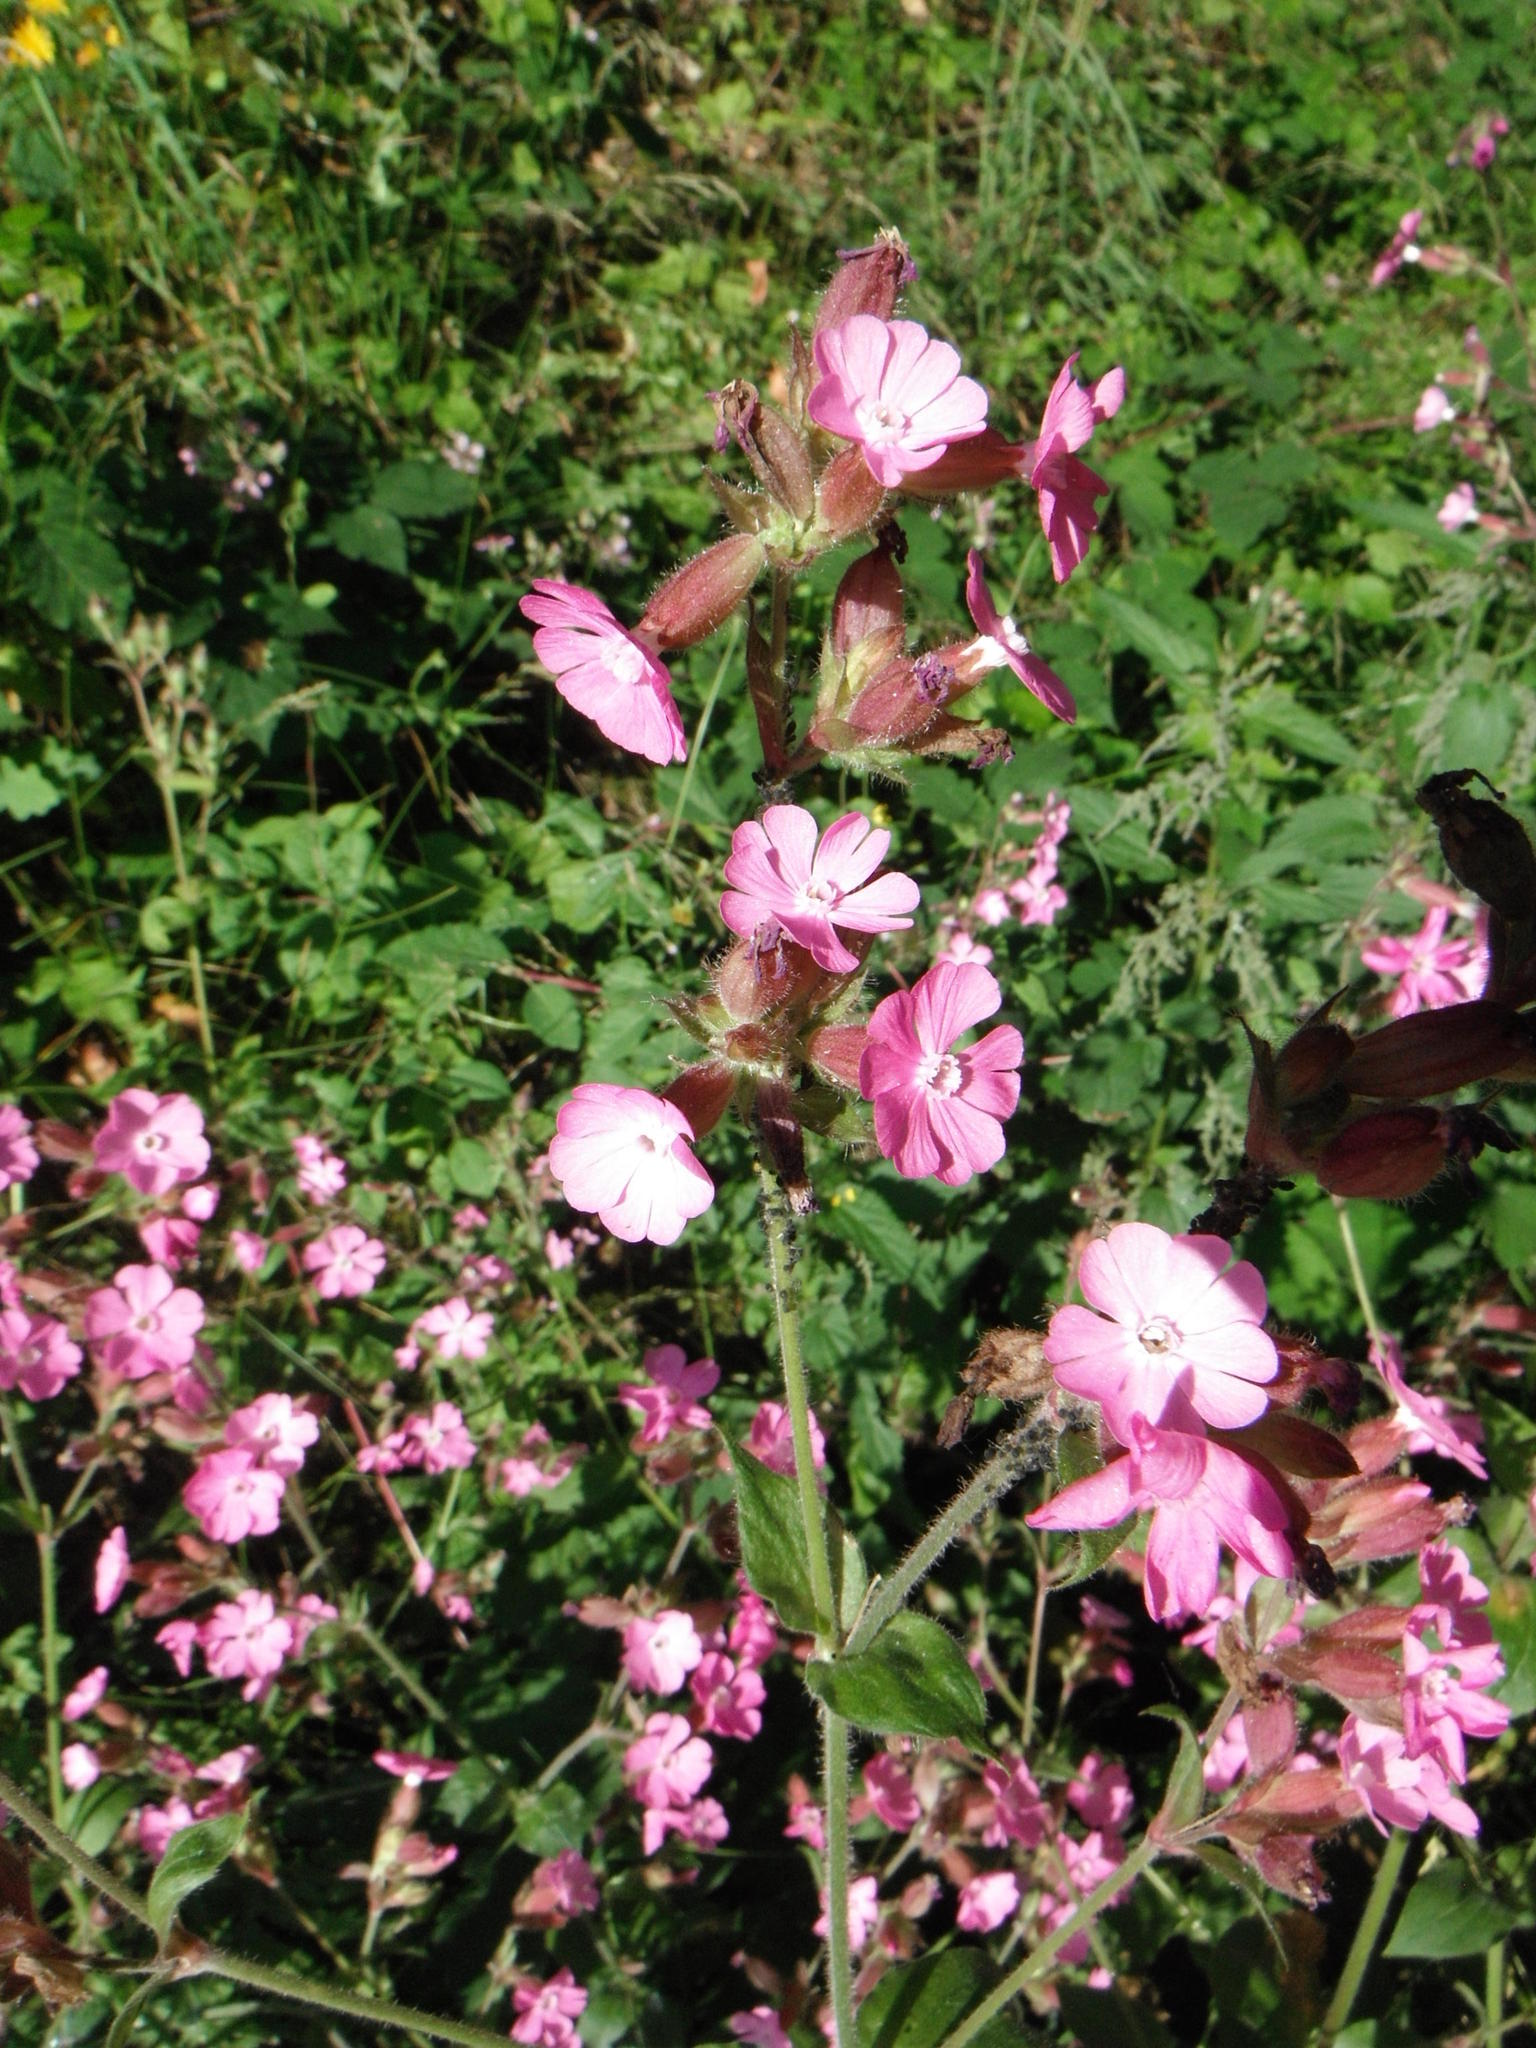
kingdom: Plantae
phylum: Tracheophyta
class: Magnoliopsida
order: Caryophyllales
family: Caryophyllaceae
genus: Silene
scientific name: Silene dioica
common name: Red campion
